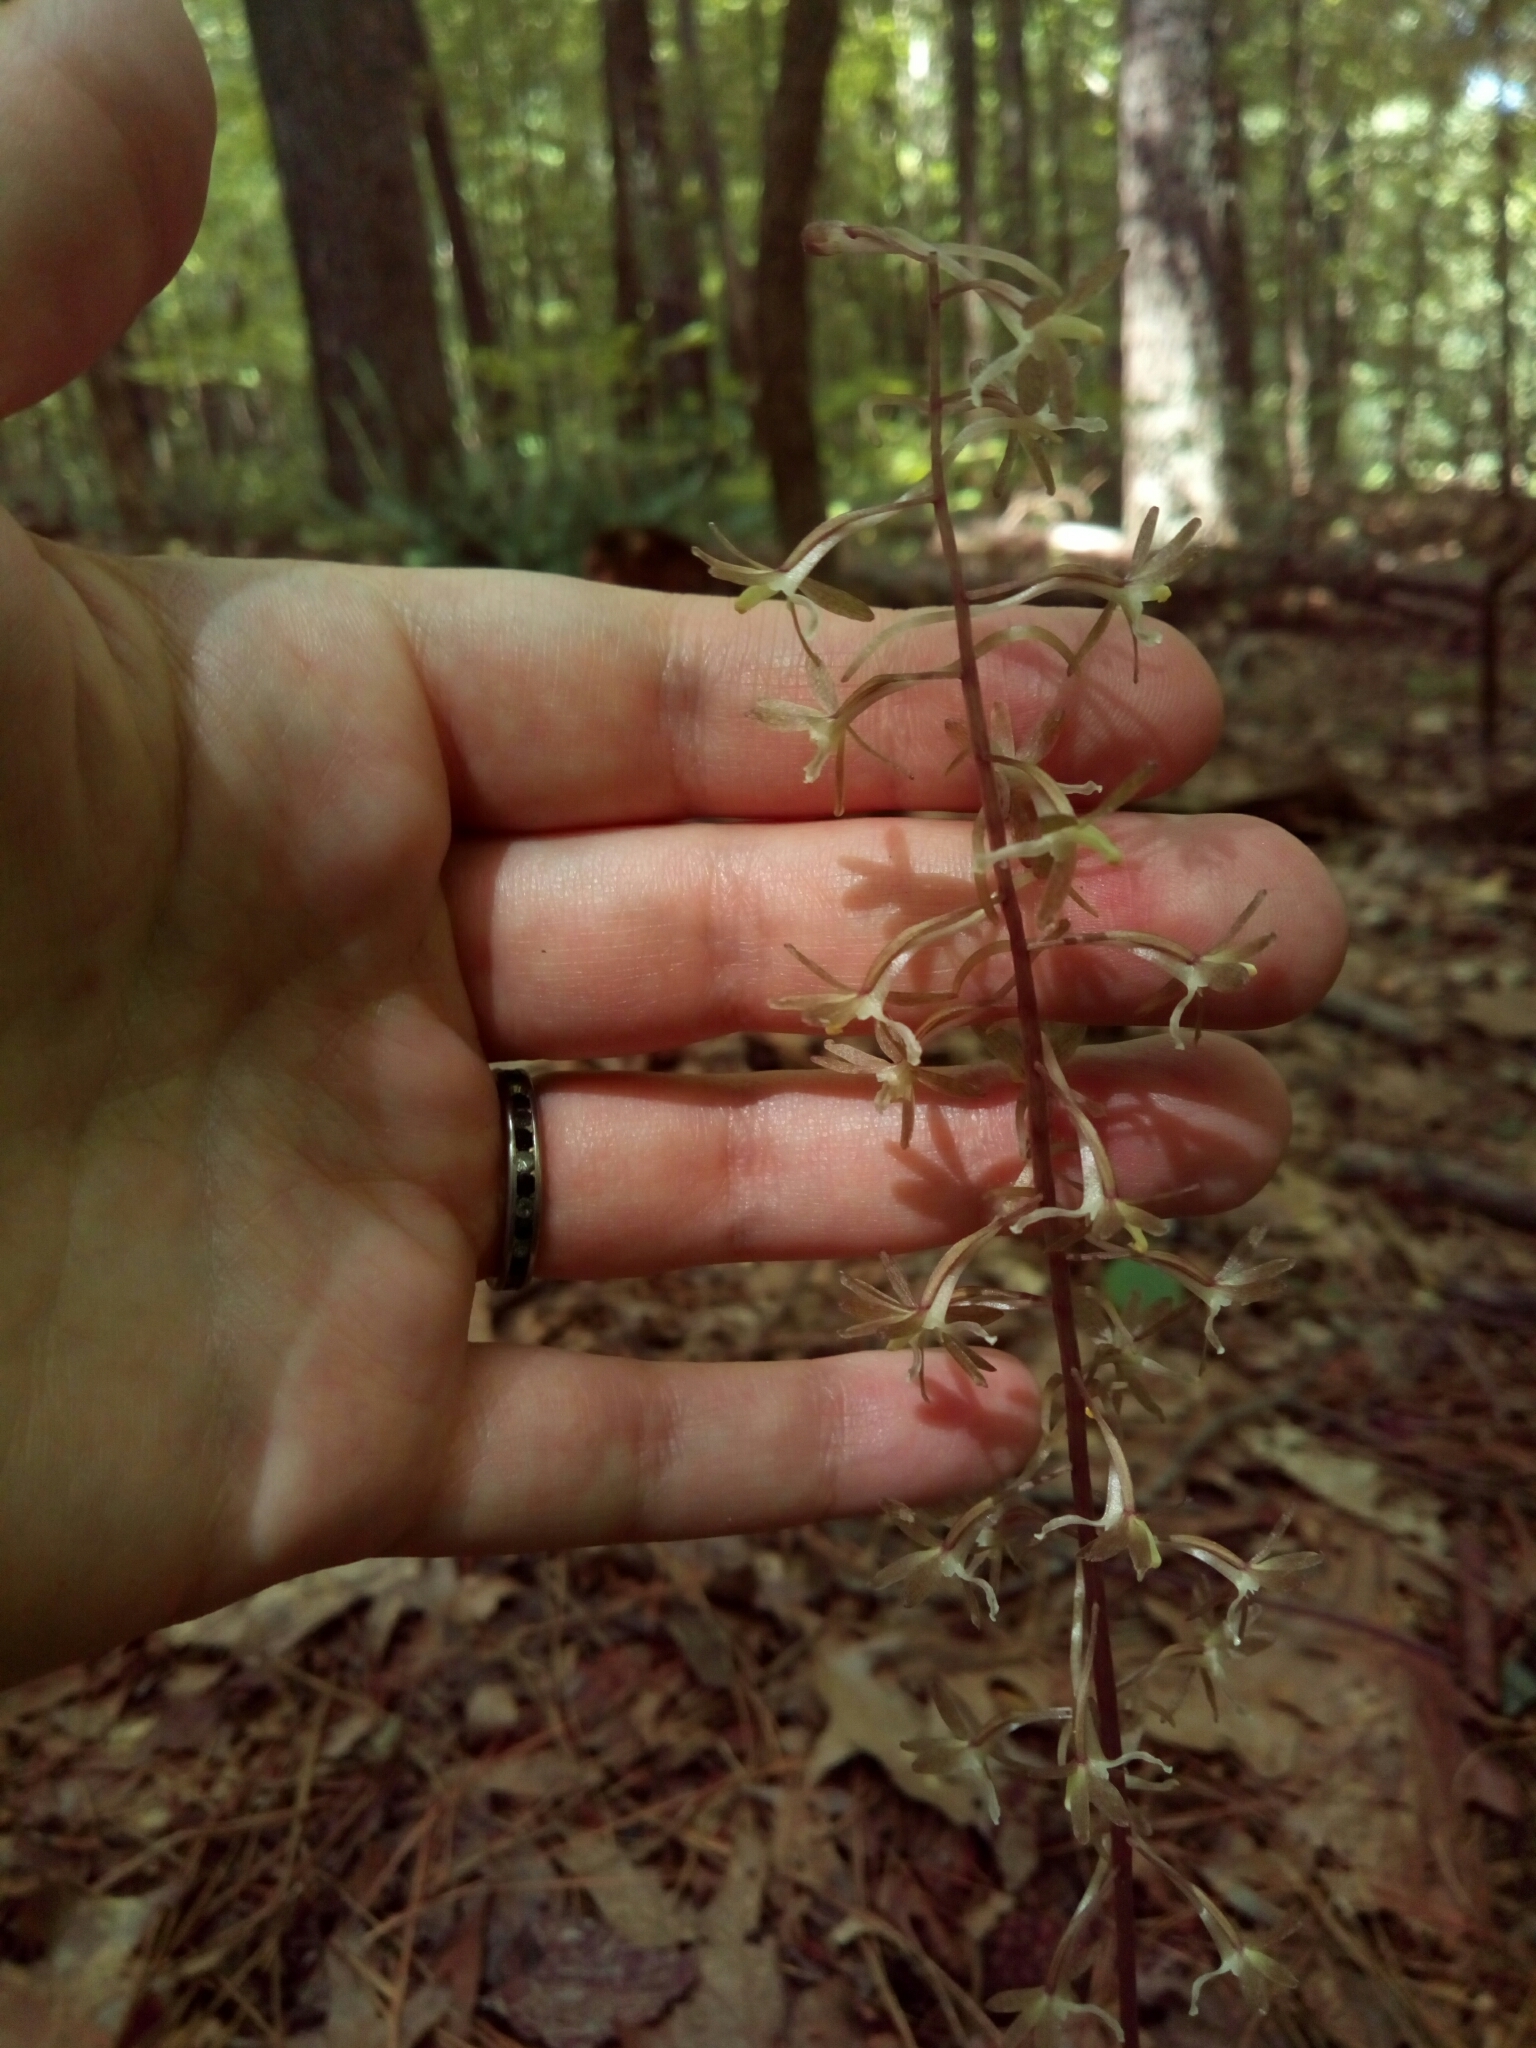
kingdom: Plantae
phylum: Tracheophyta
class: Liliopsida
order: Asparagales
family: Orchidaceae
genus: Tipularia
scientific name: Tipularia discolor
